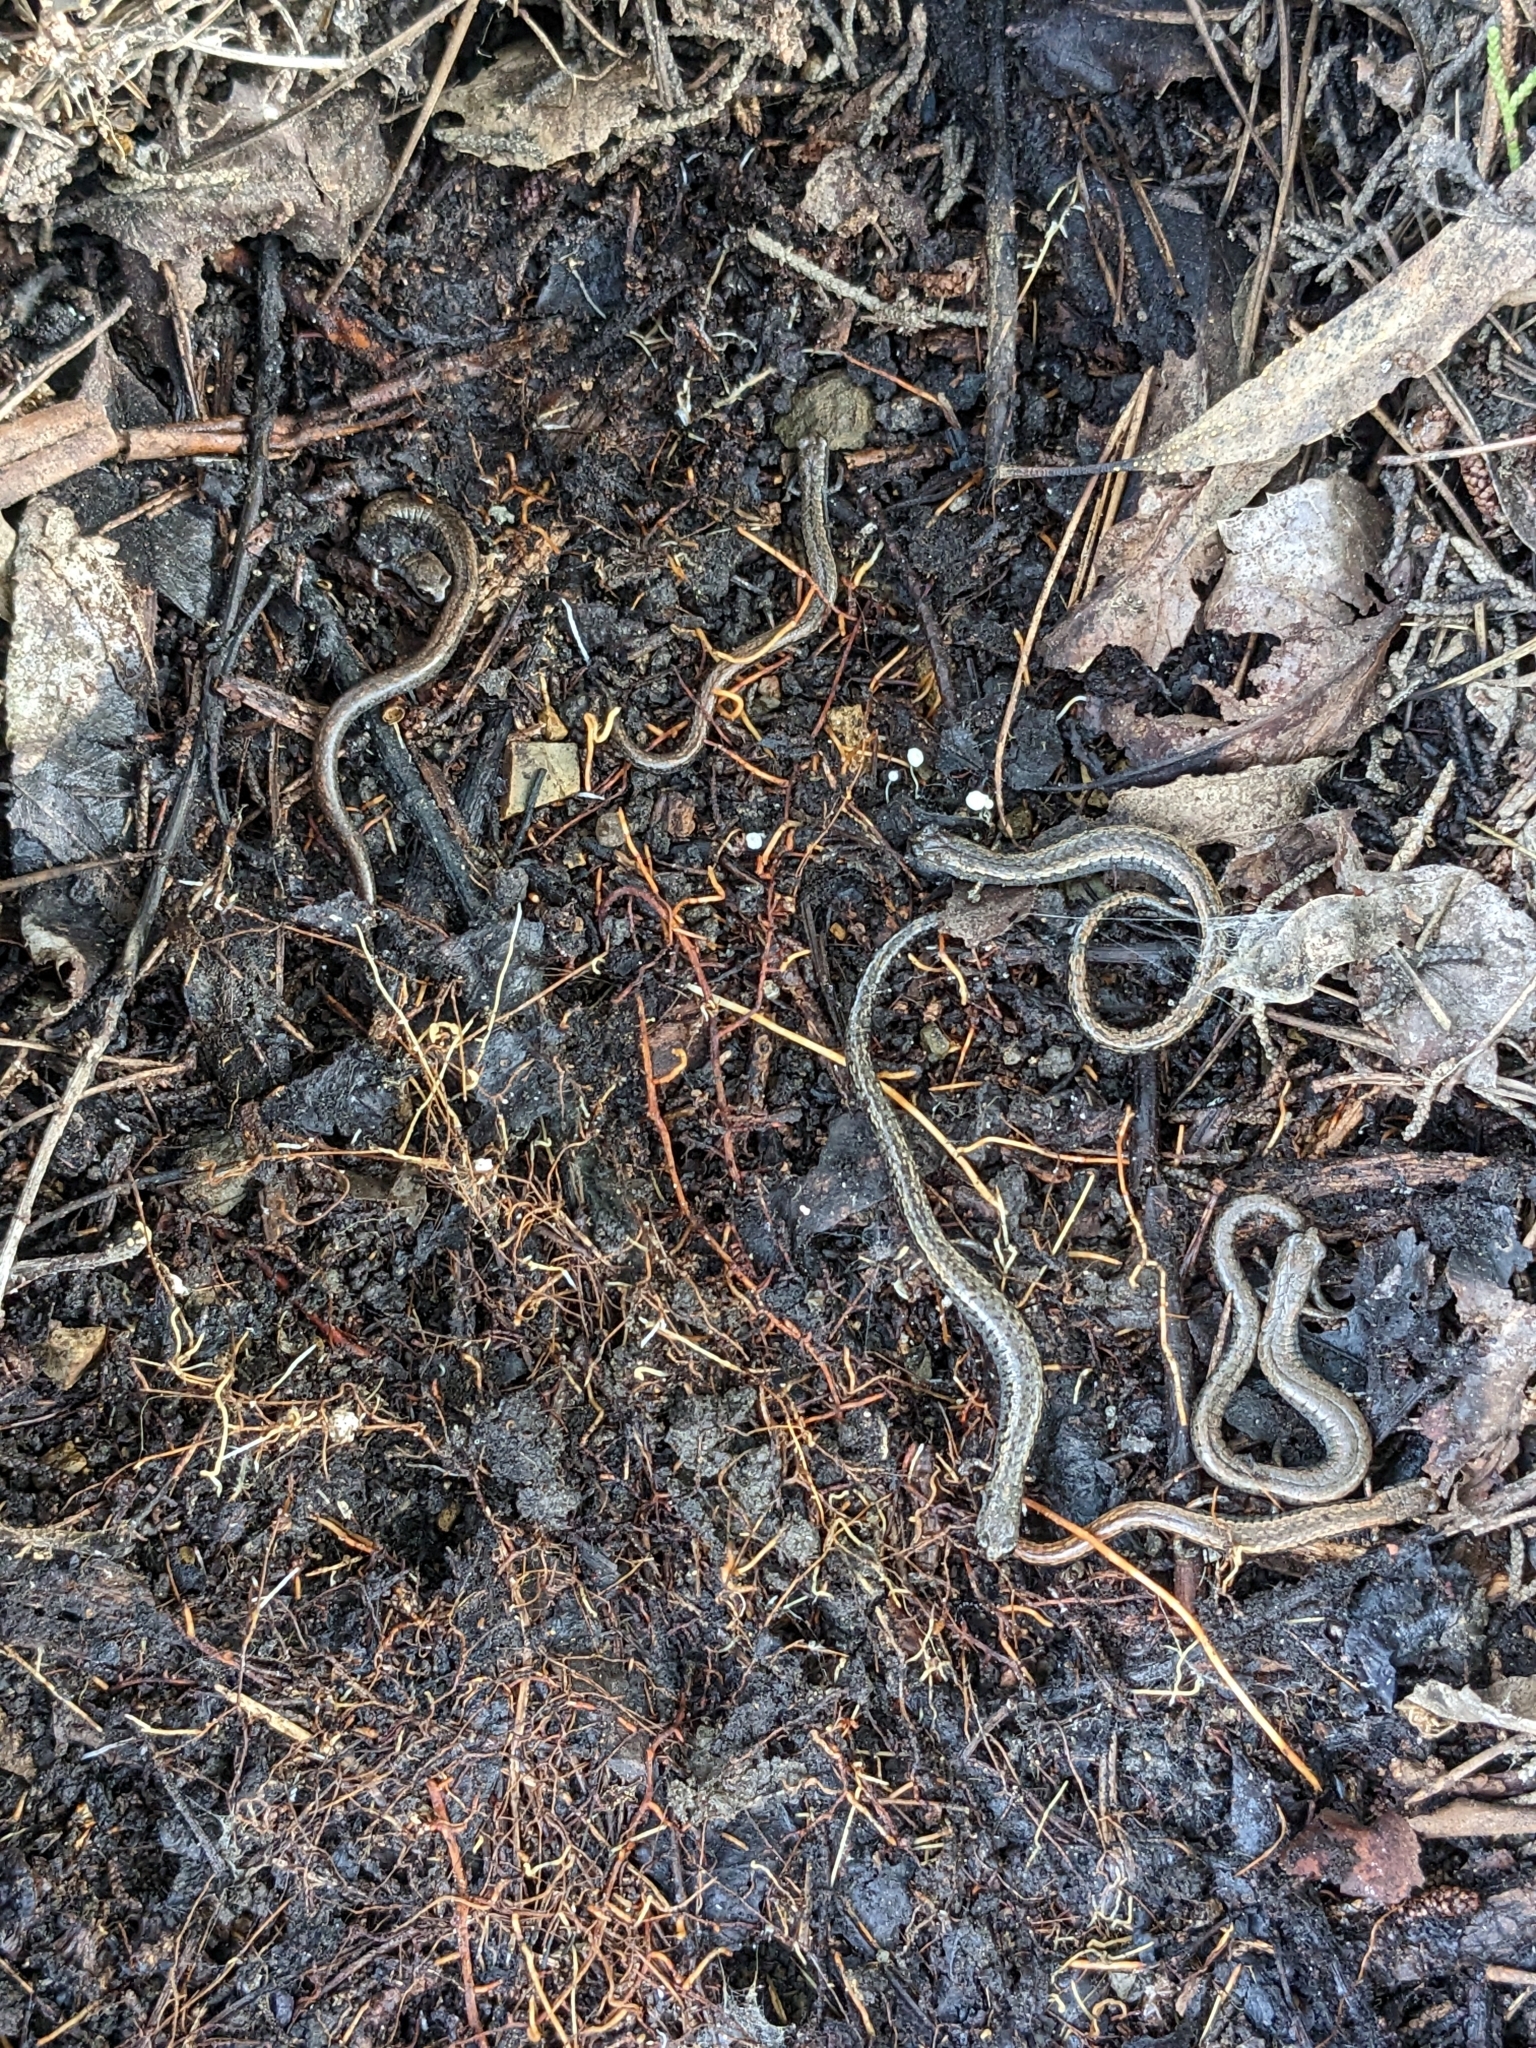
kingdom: Animalia
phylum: Chordata
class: Amphibia
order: Caudata
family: Plethodontidae
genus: Batrachoseps
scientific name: Batrachoseps attenuatus
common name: California slender salamander
